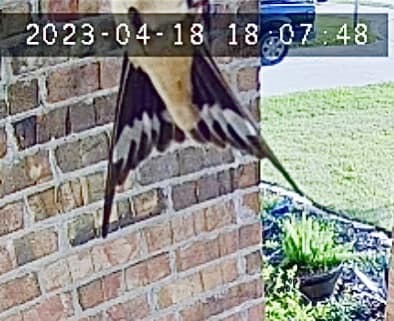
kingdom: Animalia
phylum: Chordata
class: Aves
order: Passeriformes
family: Hirundinidae
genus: Hirundo
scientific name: Hirundo rustica
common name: Barn swallow
